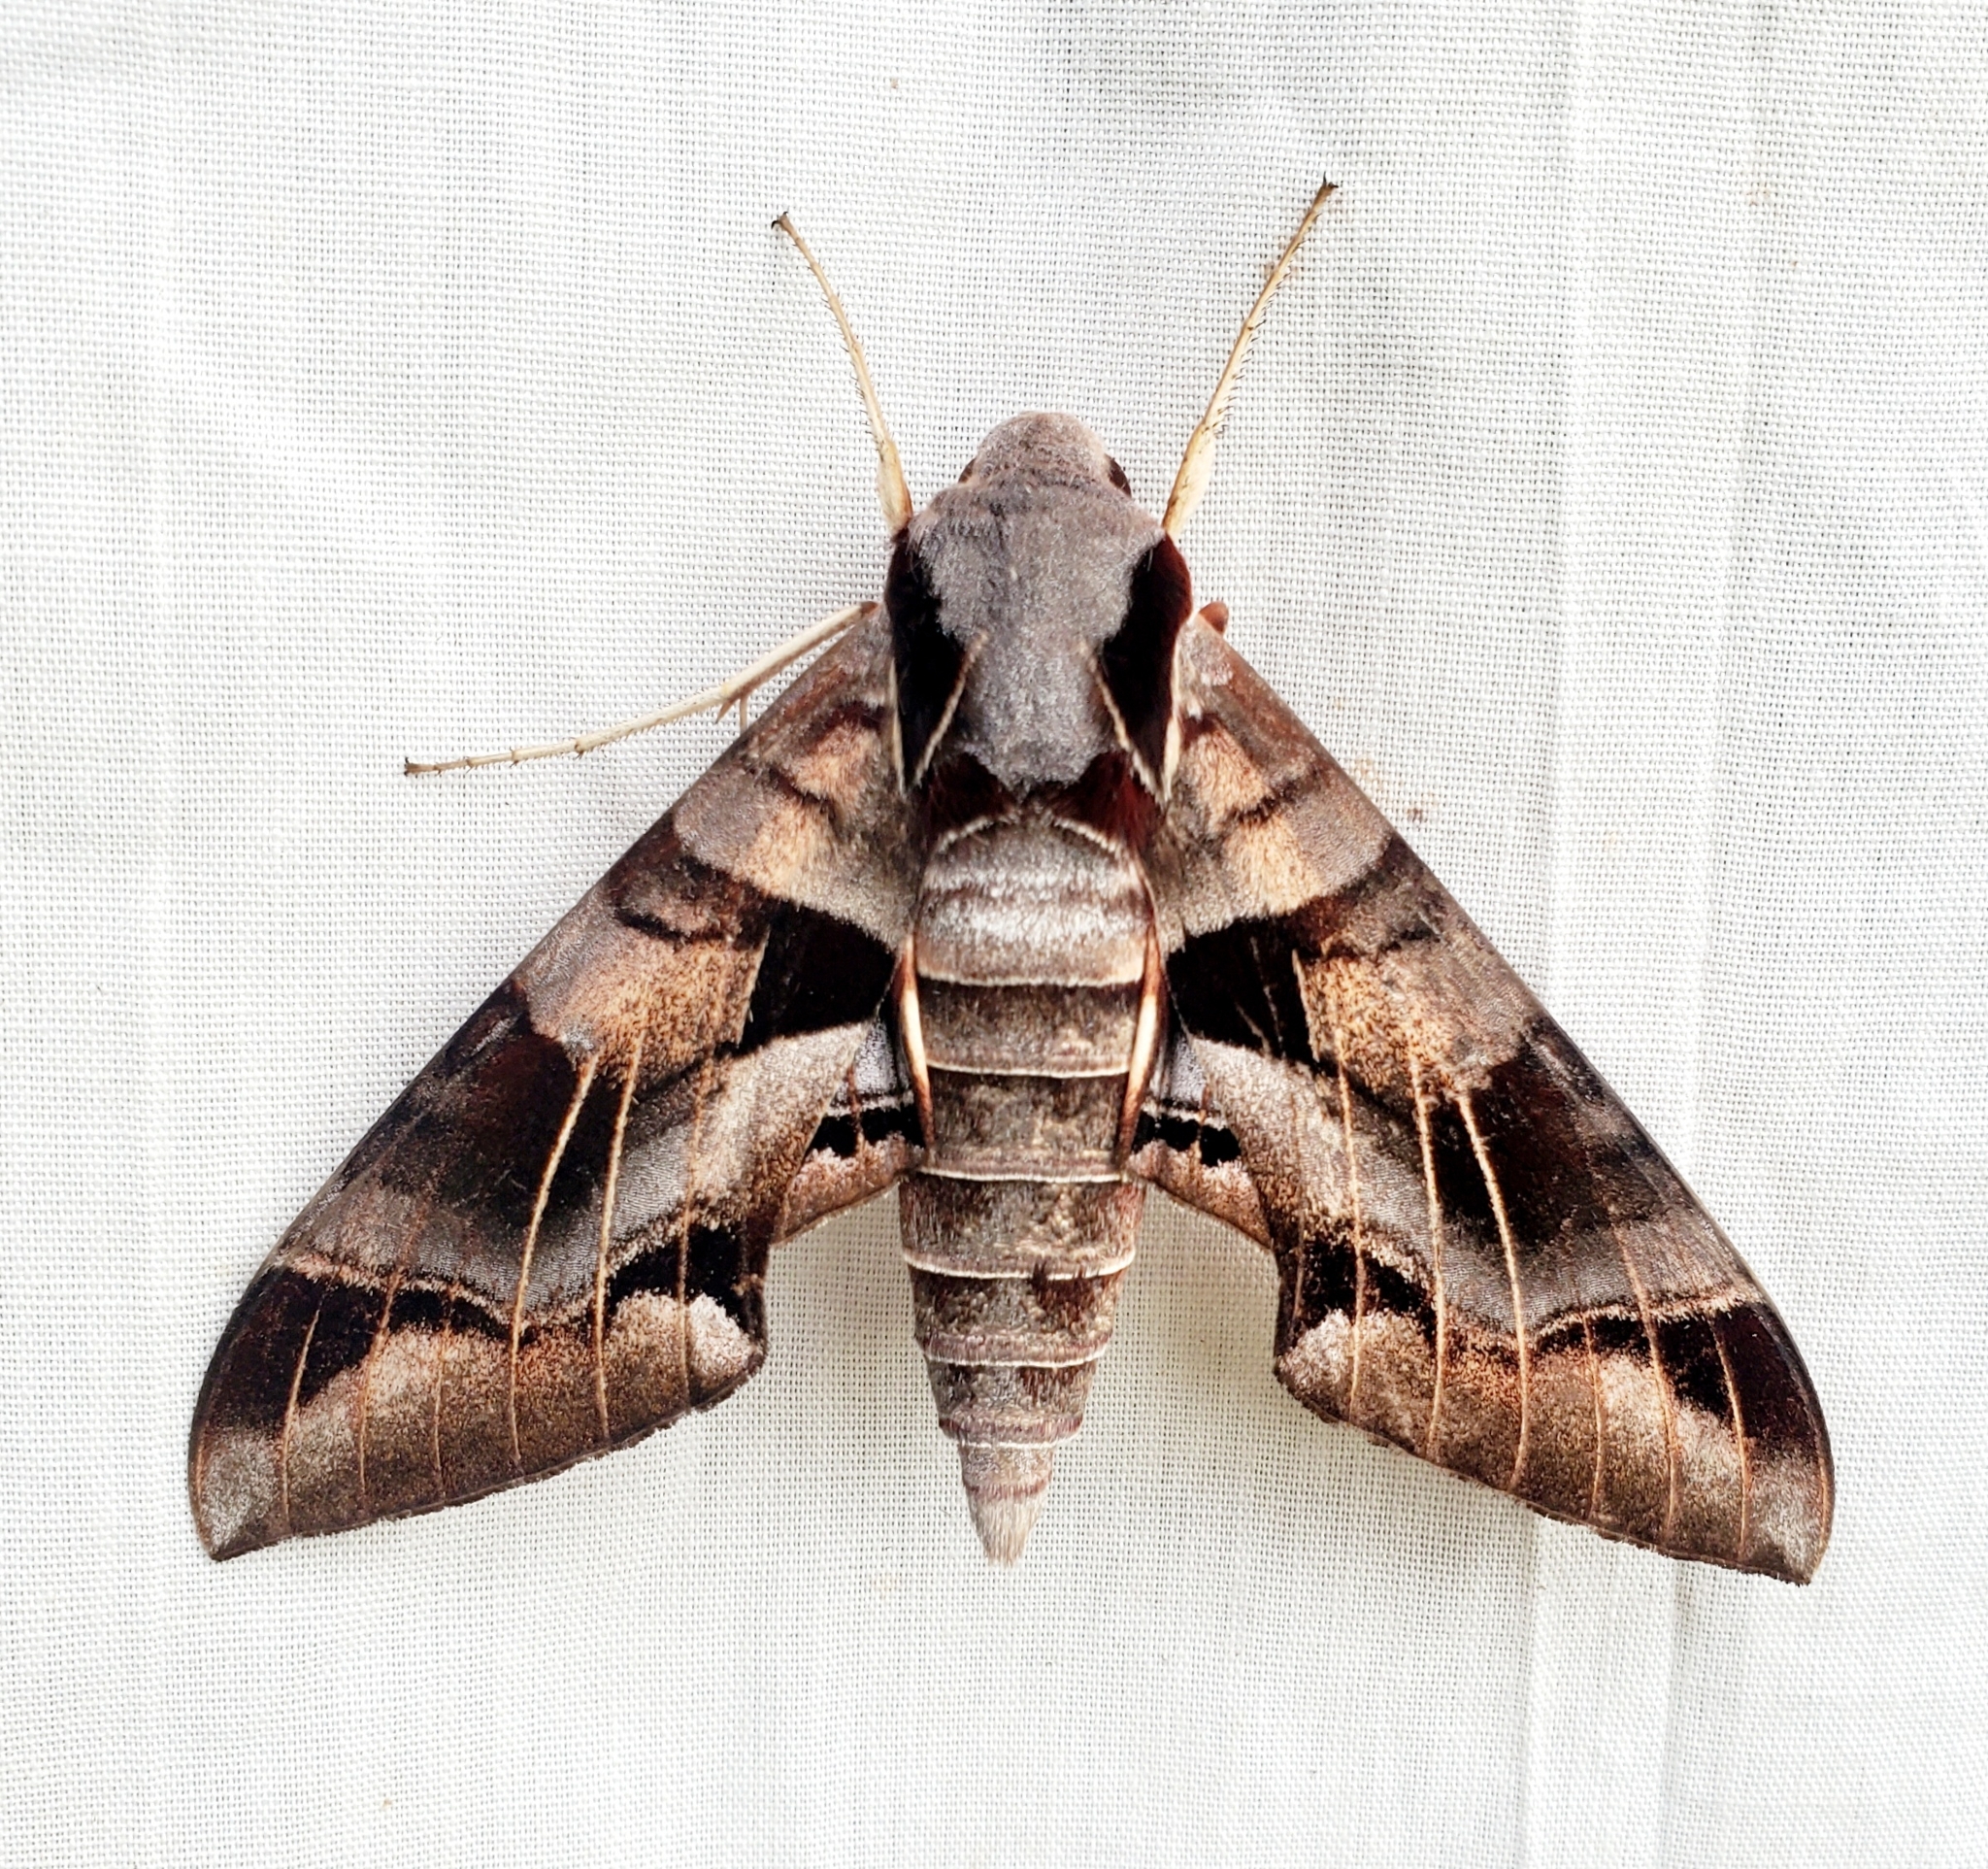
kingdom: Animalia
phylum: Arthropoda
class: Insecta
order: Lepidoptera
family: Sphingidae
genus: Eumorpha
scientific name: Eumorpha typhon
